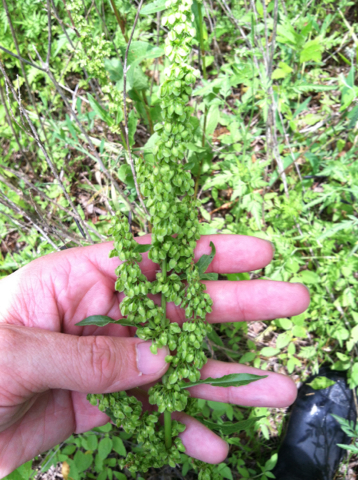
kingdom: Plantae
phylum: Tracheophyta
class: Magnoliopsida
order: Caryophyllales
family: Polygonaceae
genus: Rumex
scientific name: Rumex crispus
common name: Curled dock
